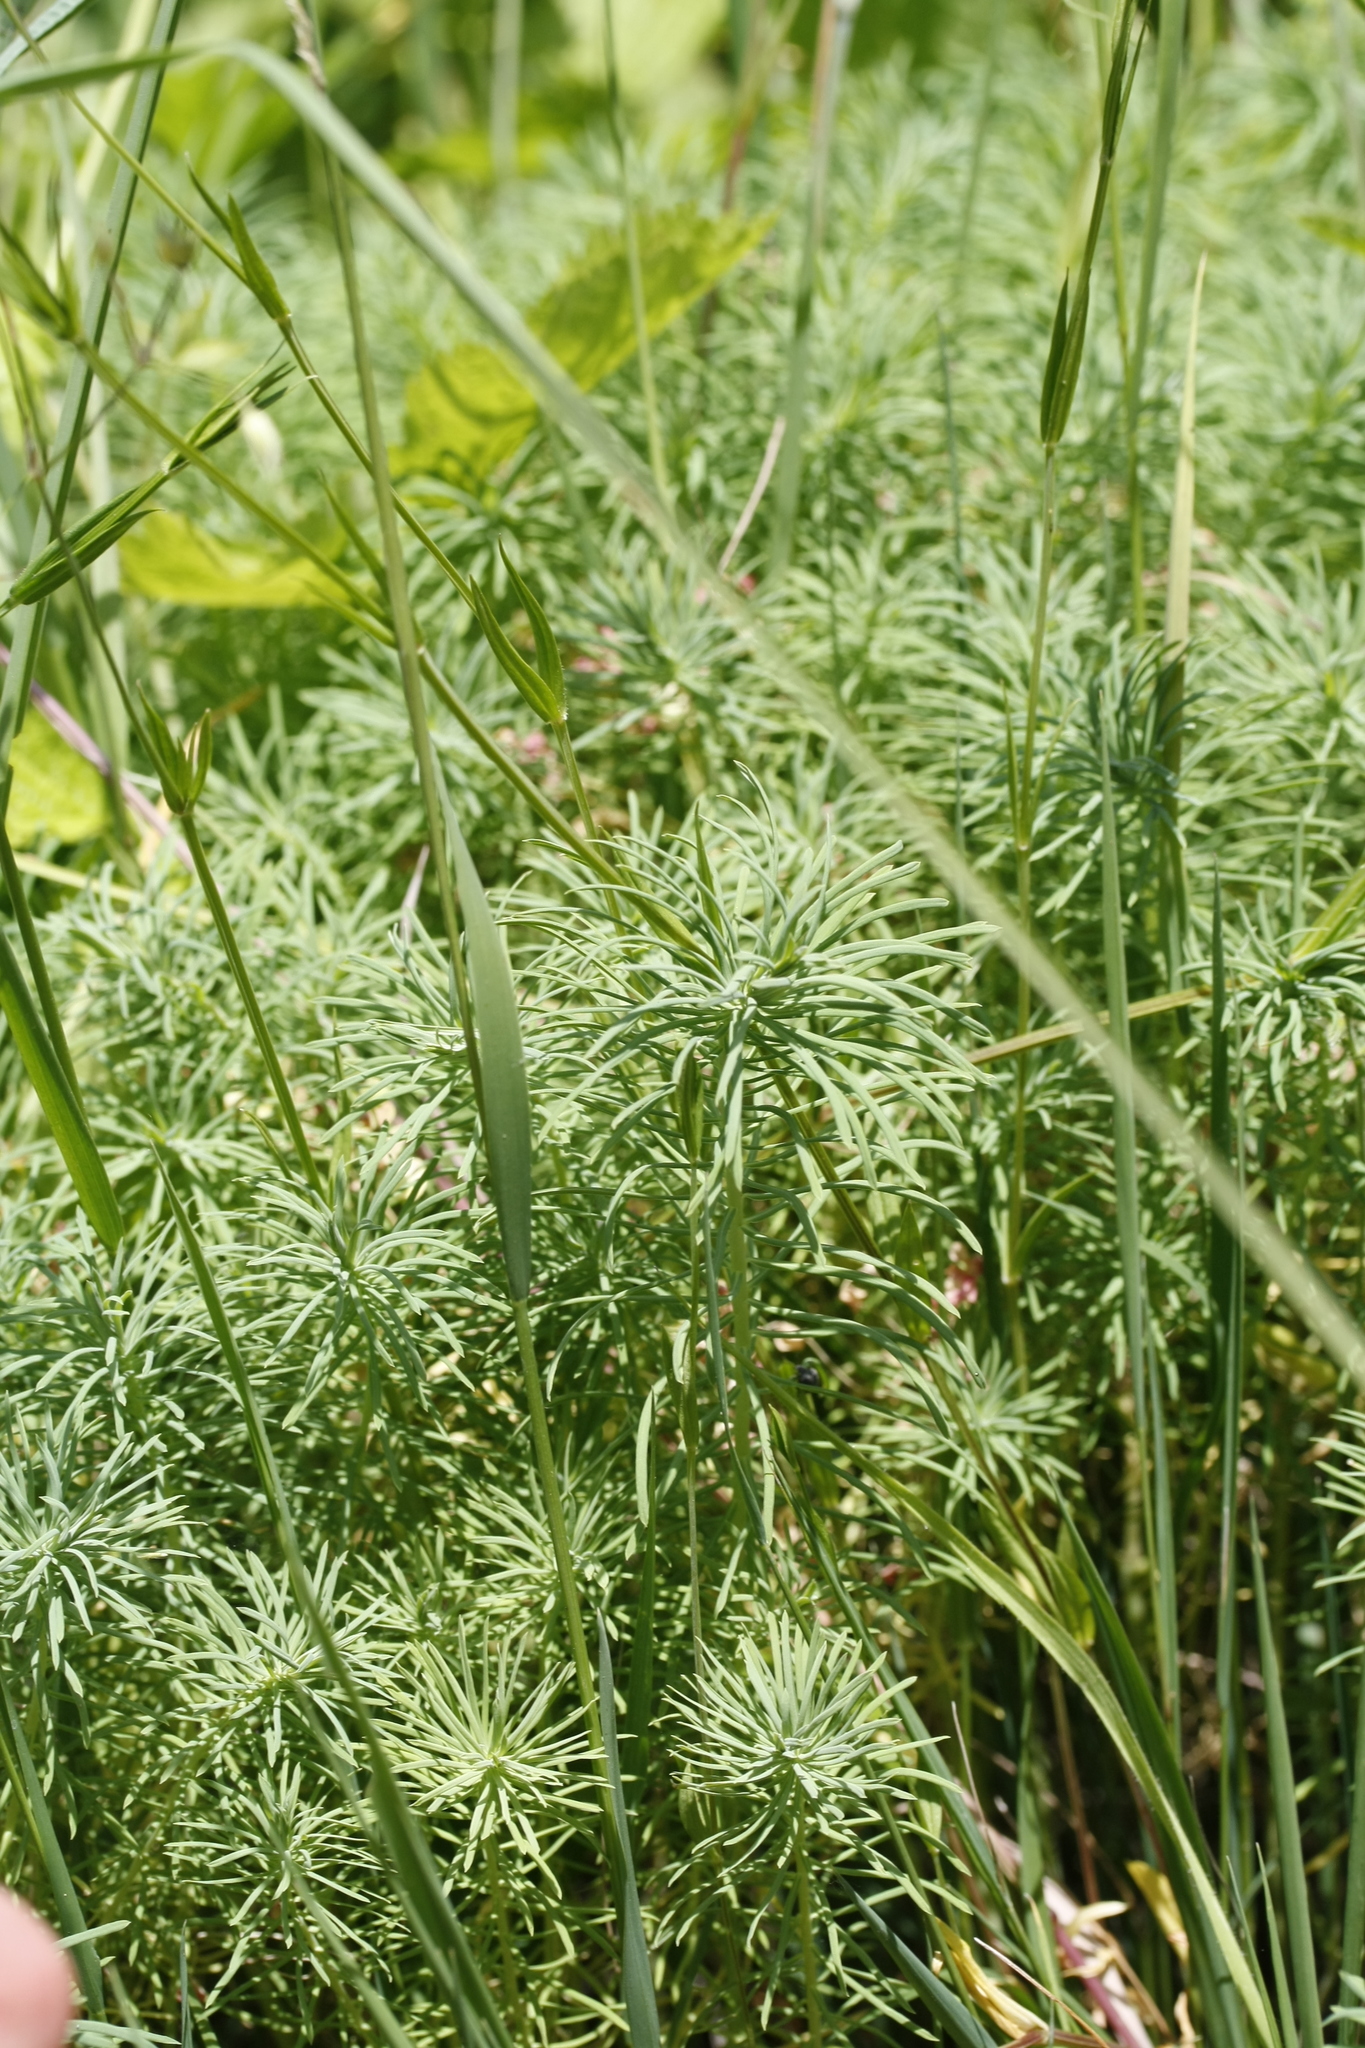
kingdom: Plantae
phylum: Tracheophyta
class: Magnoliopsida
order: Malpighiales
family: Euphorbiaceae
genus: Euphorbia
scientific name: Euphorbia cyparissias
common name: Cypress spurge
